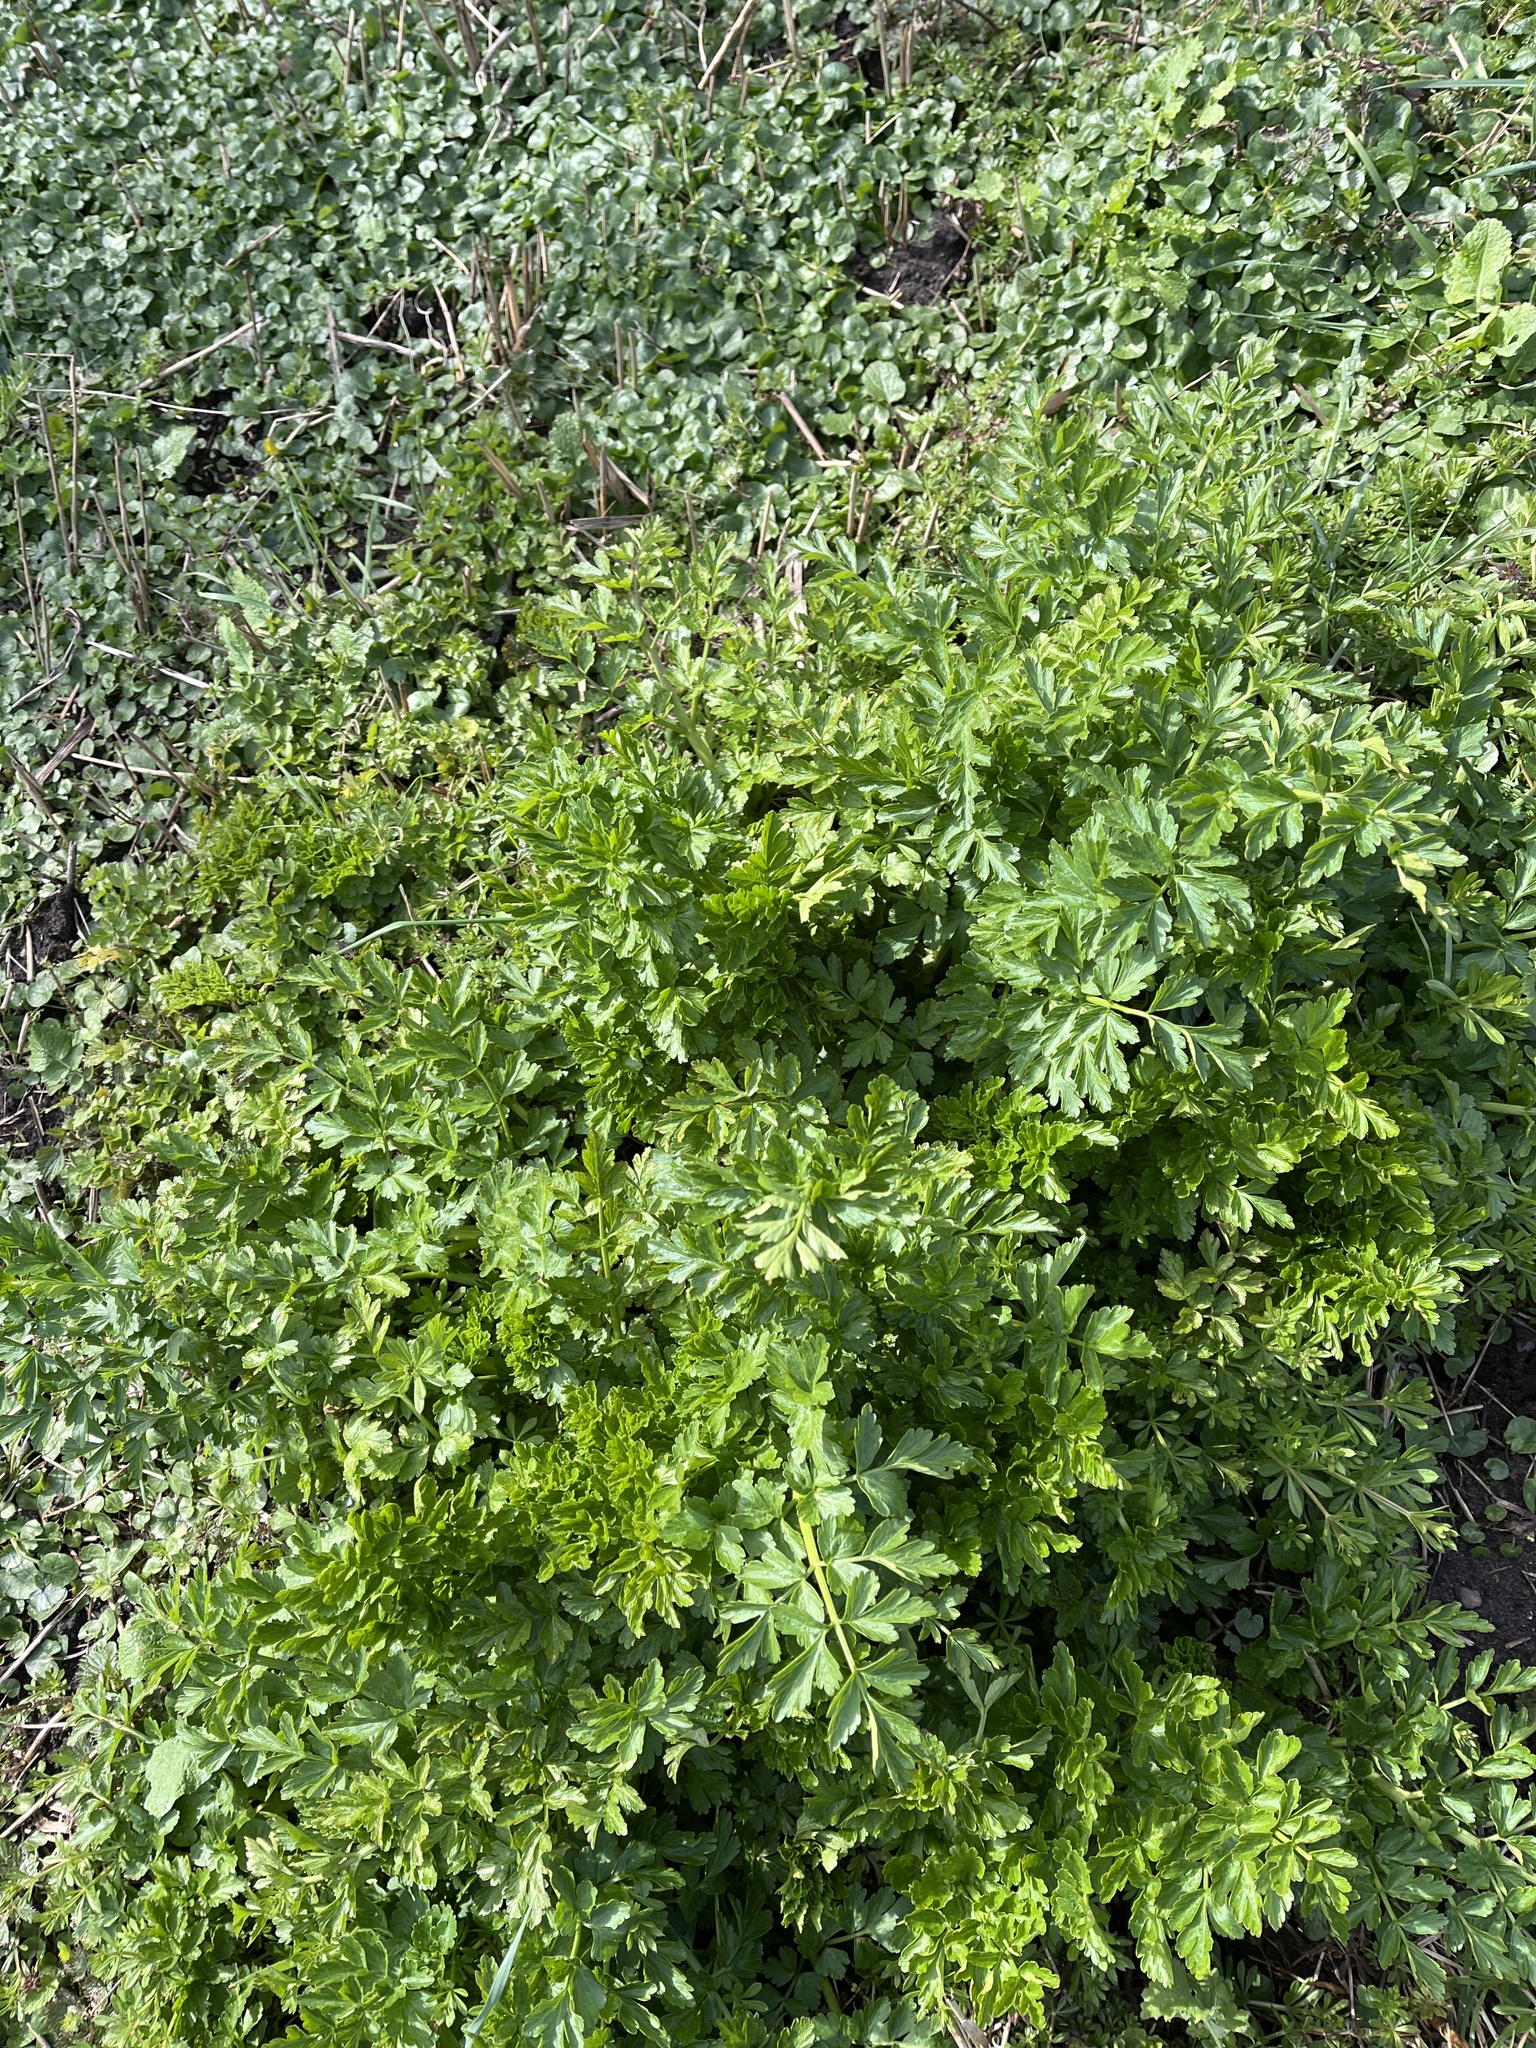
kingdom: Plantae
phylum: Tracheophyta
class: Magnoliopsida
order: Apiales
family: Apiaceae
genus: Oenanthe
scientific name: Oenanthe crocata
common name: Hemlock water-dropwort
